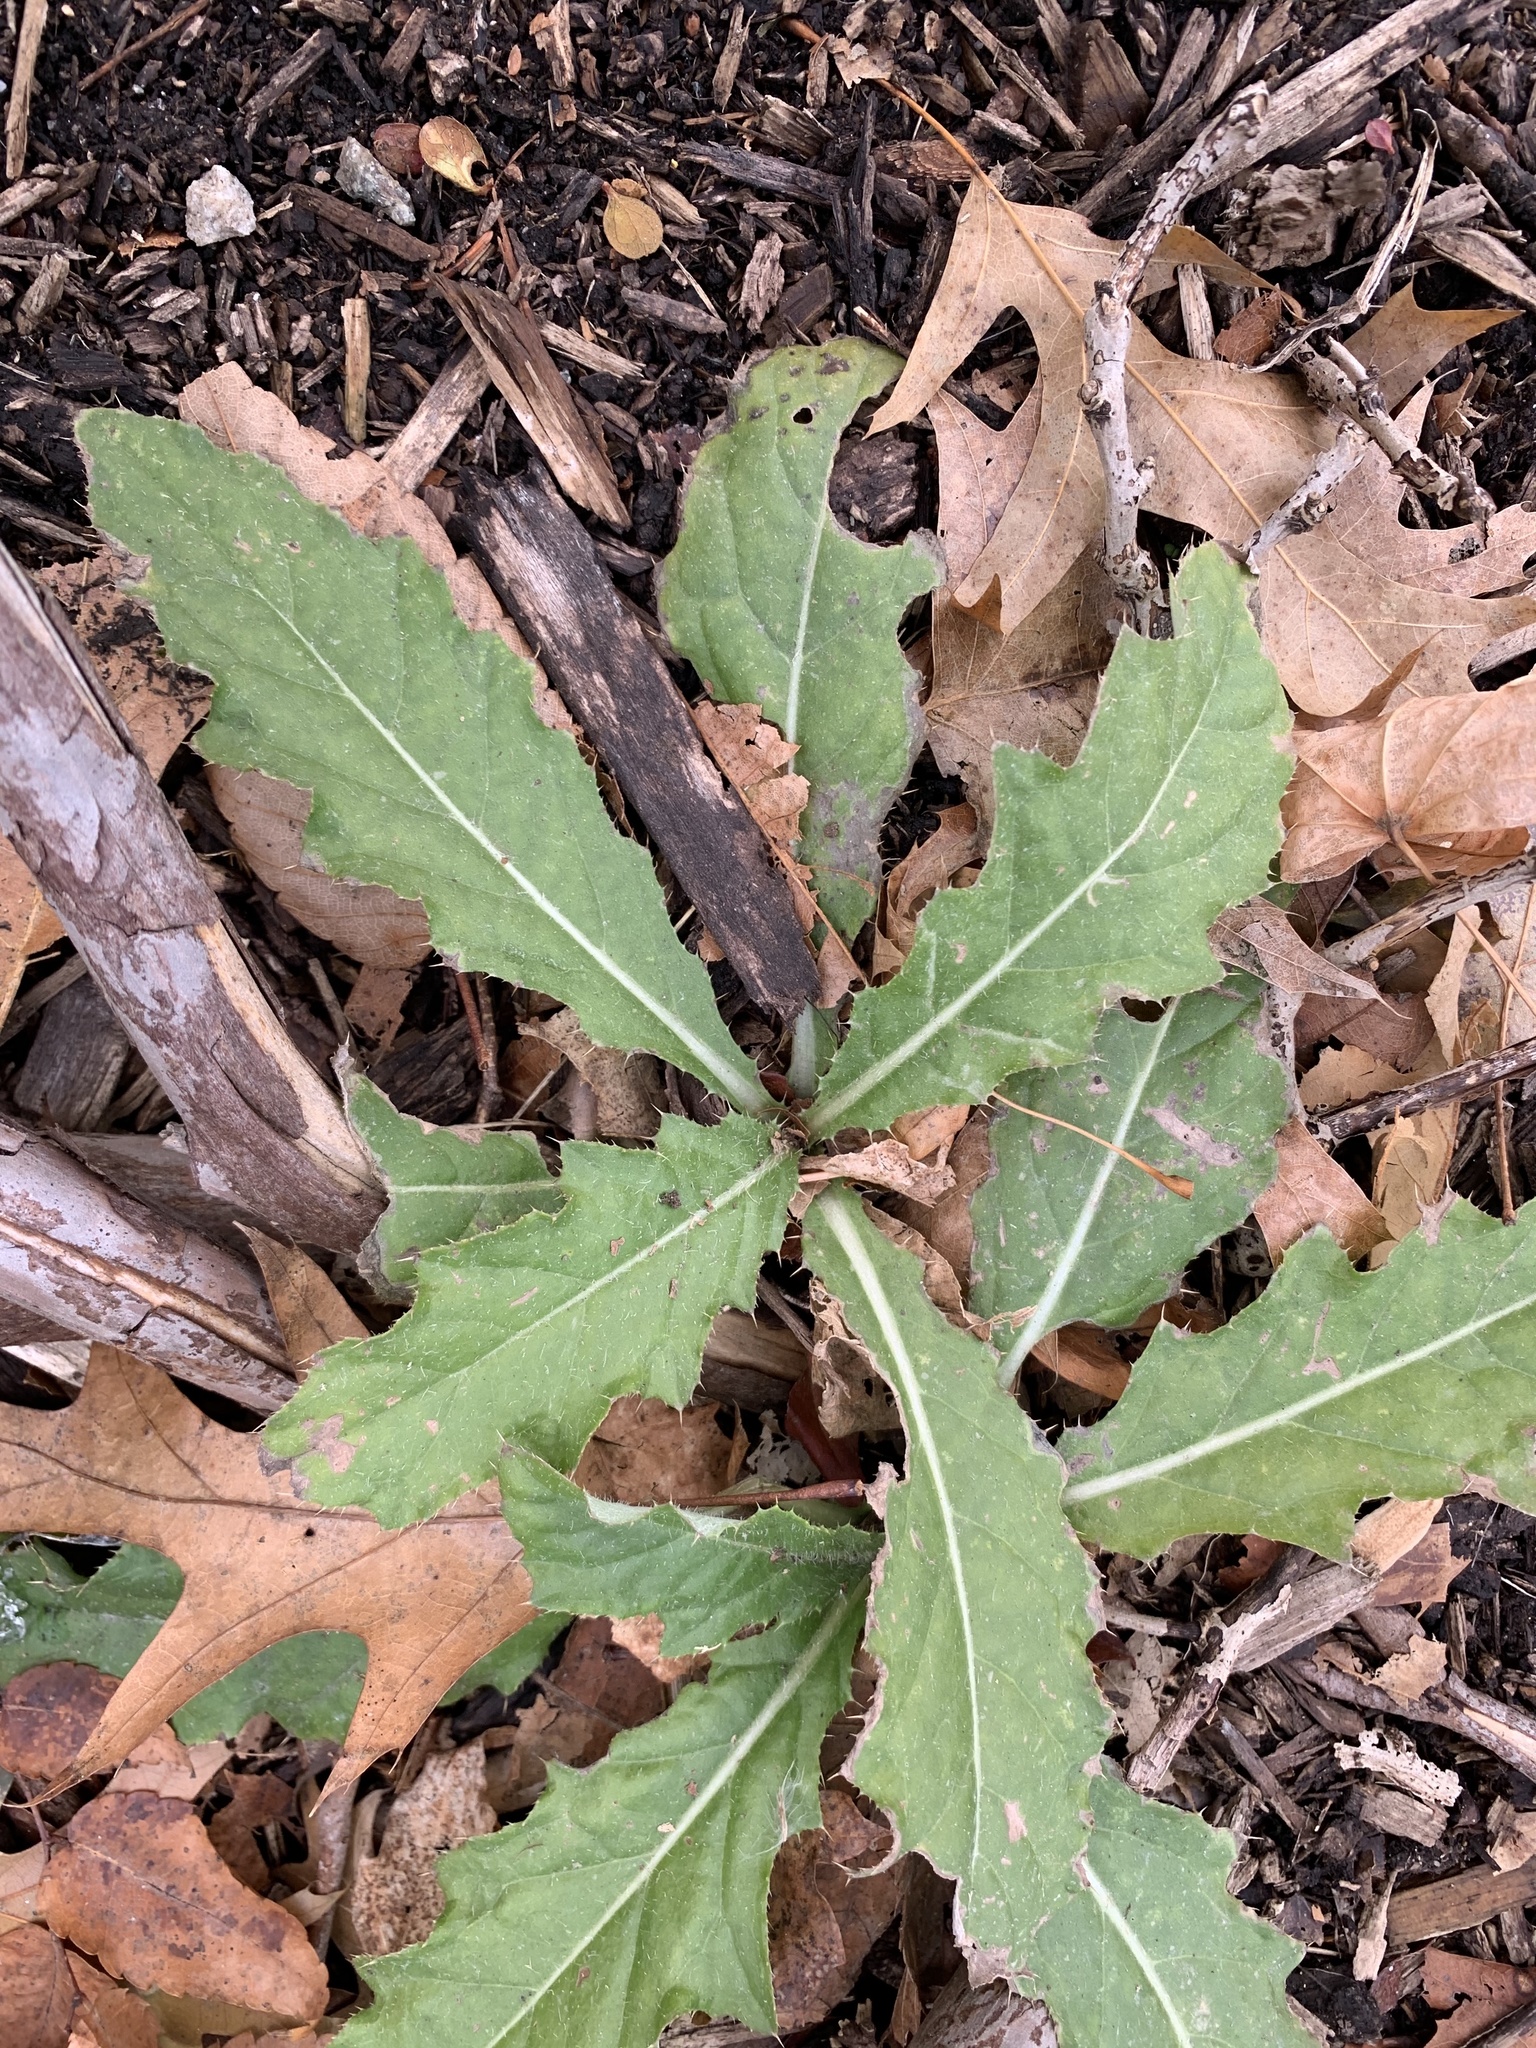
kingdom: Plantae
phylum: Tracheophyta
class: Magnoliopsida
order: Asterales
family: Asteraceae
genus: Cirsium
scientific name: Cirsium arvense
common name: Creeping thistle
